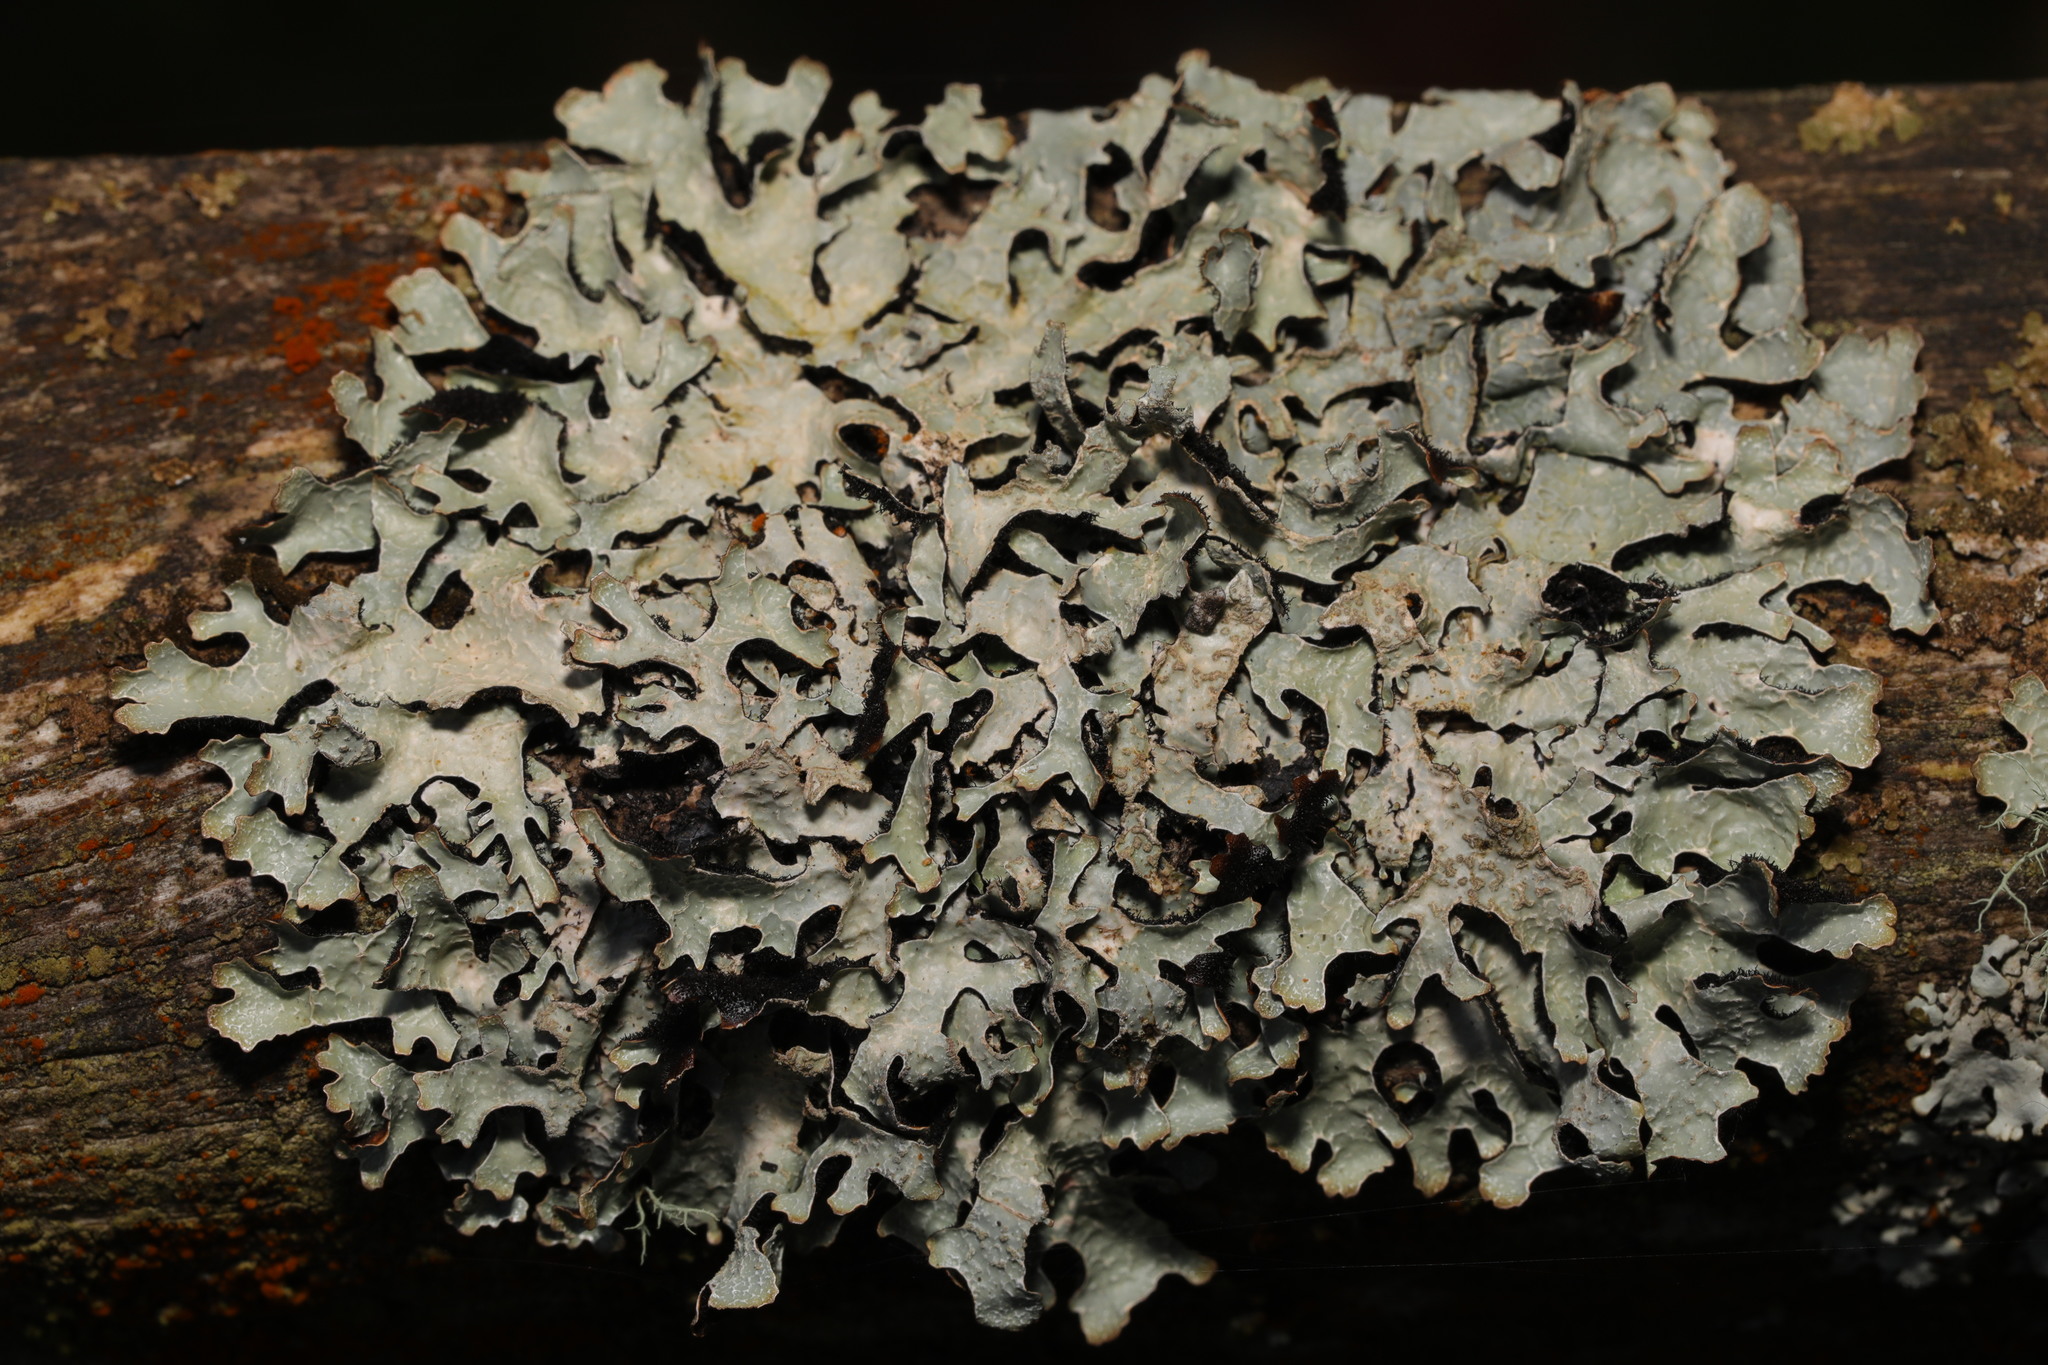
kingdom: Fungi
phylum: Ascomycota
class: Lecanoromycetes
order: Lecanorales
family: Parmeliaceae
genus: Parmelia
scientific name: Parmelia sulcata
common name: Netted shield lichen
